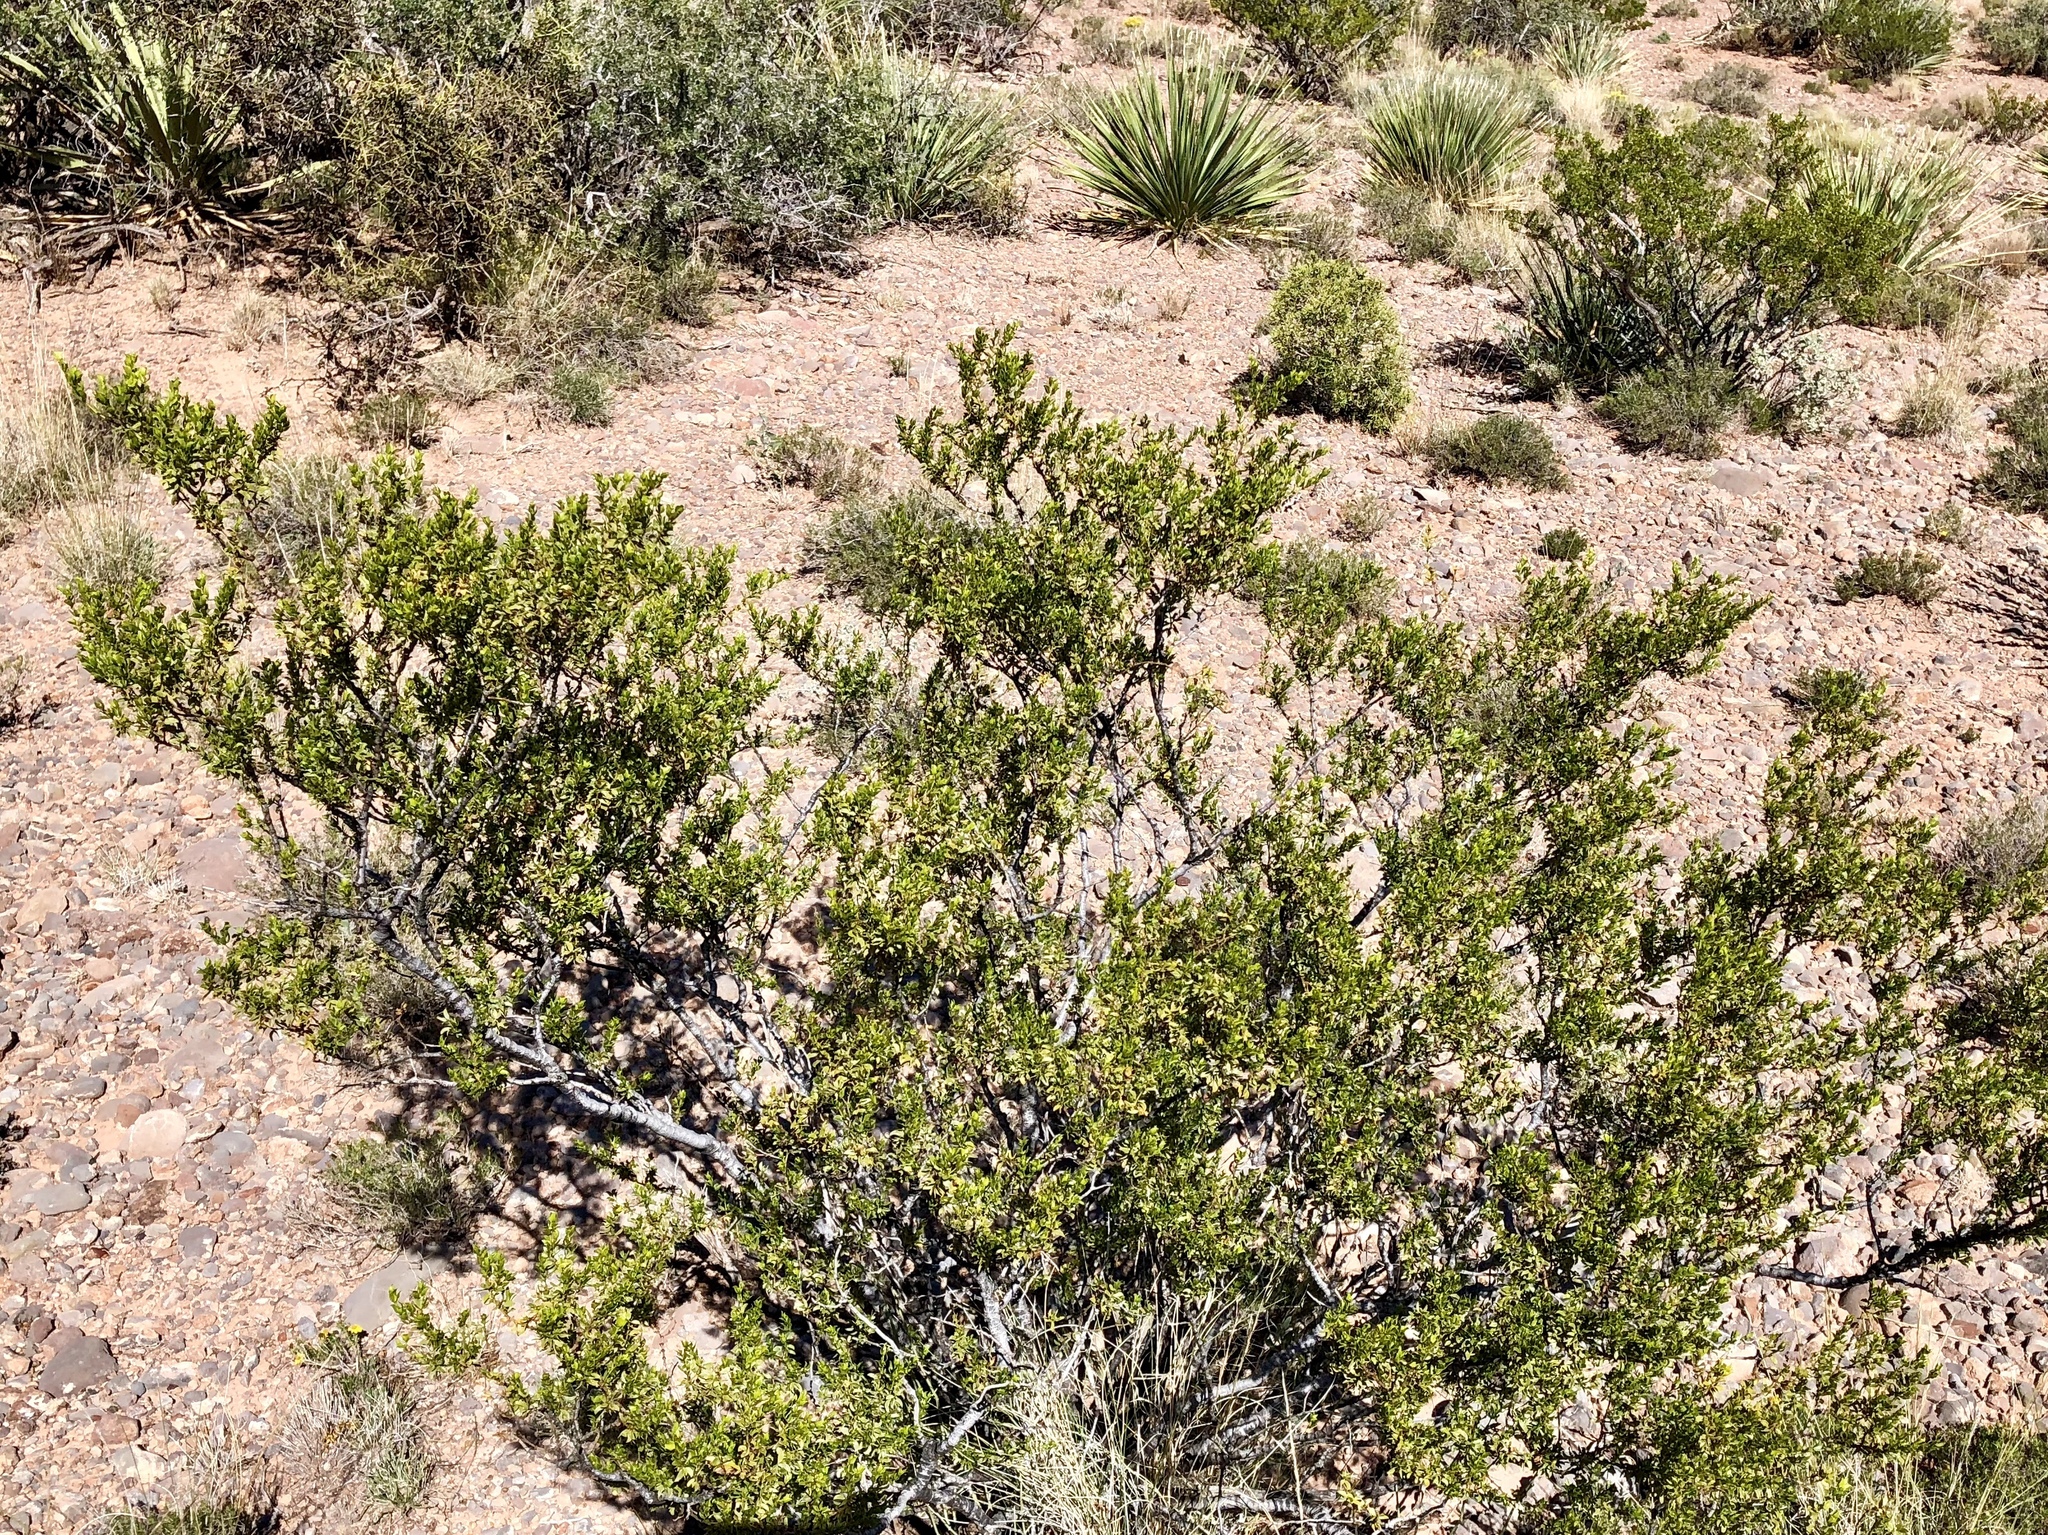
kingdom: Plantae
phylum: Tracheophyta
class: Magnoliopsida
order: Zygophyllales
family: Zygophyllaceae
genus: Larrea
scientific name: Larrea tridentata
